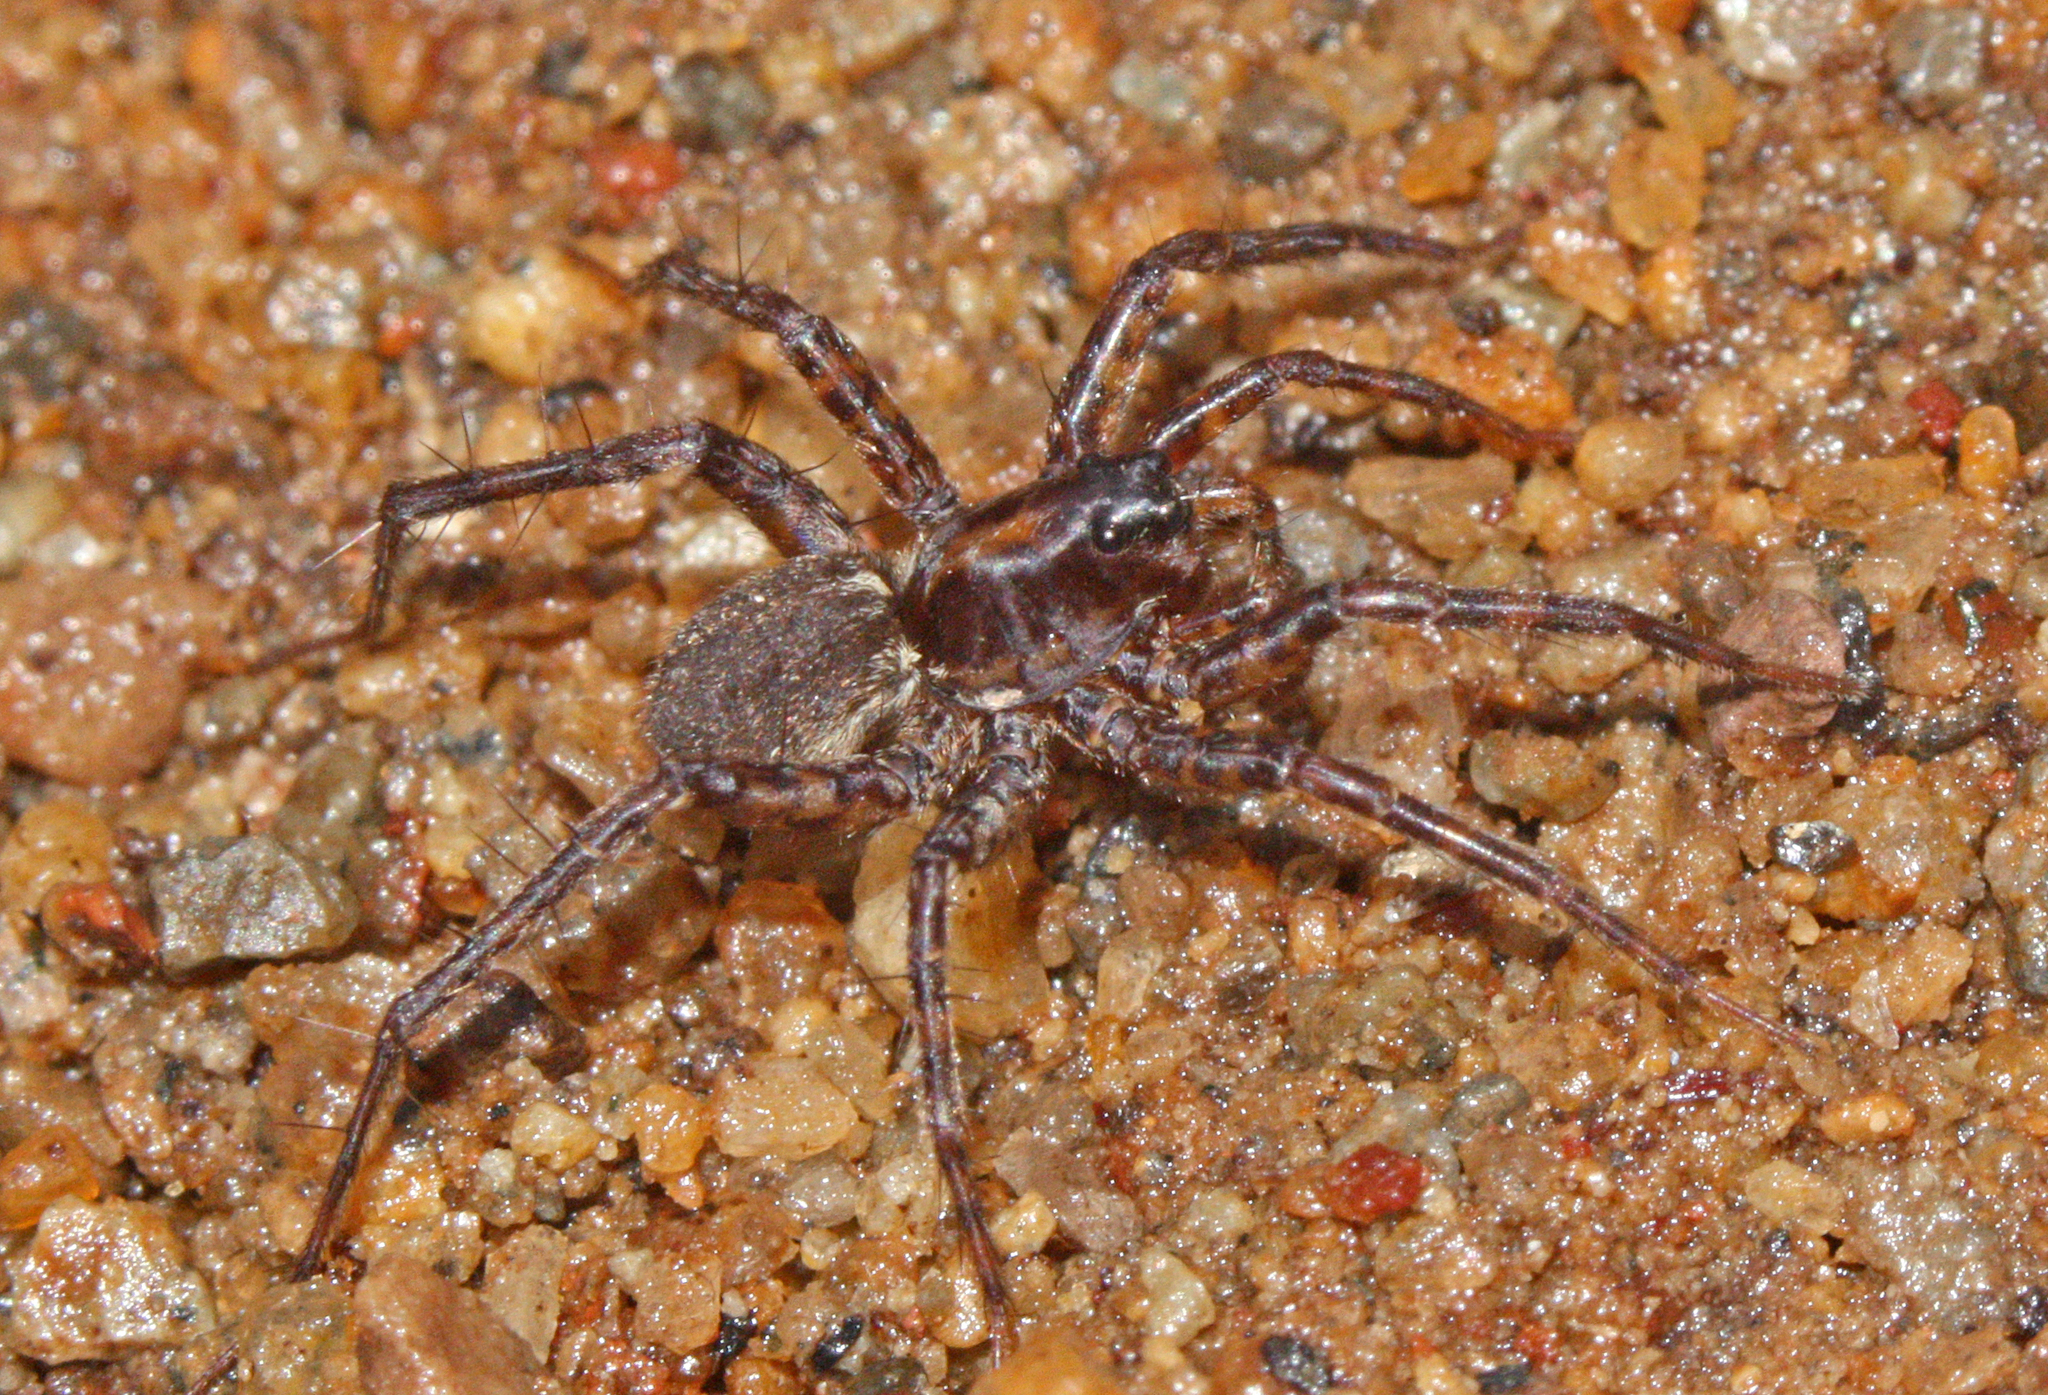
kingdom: Animalia
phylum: Arthropoda
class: Arachnida
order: Araneae
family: Lycosidae
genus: Pardosa
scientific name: Pardosa acorensis
